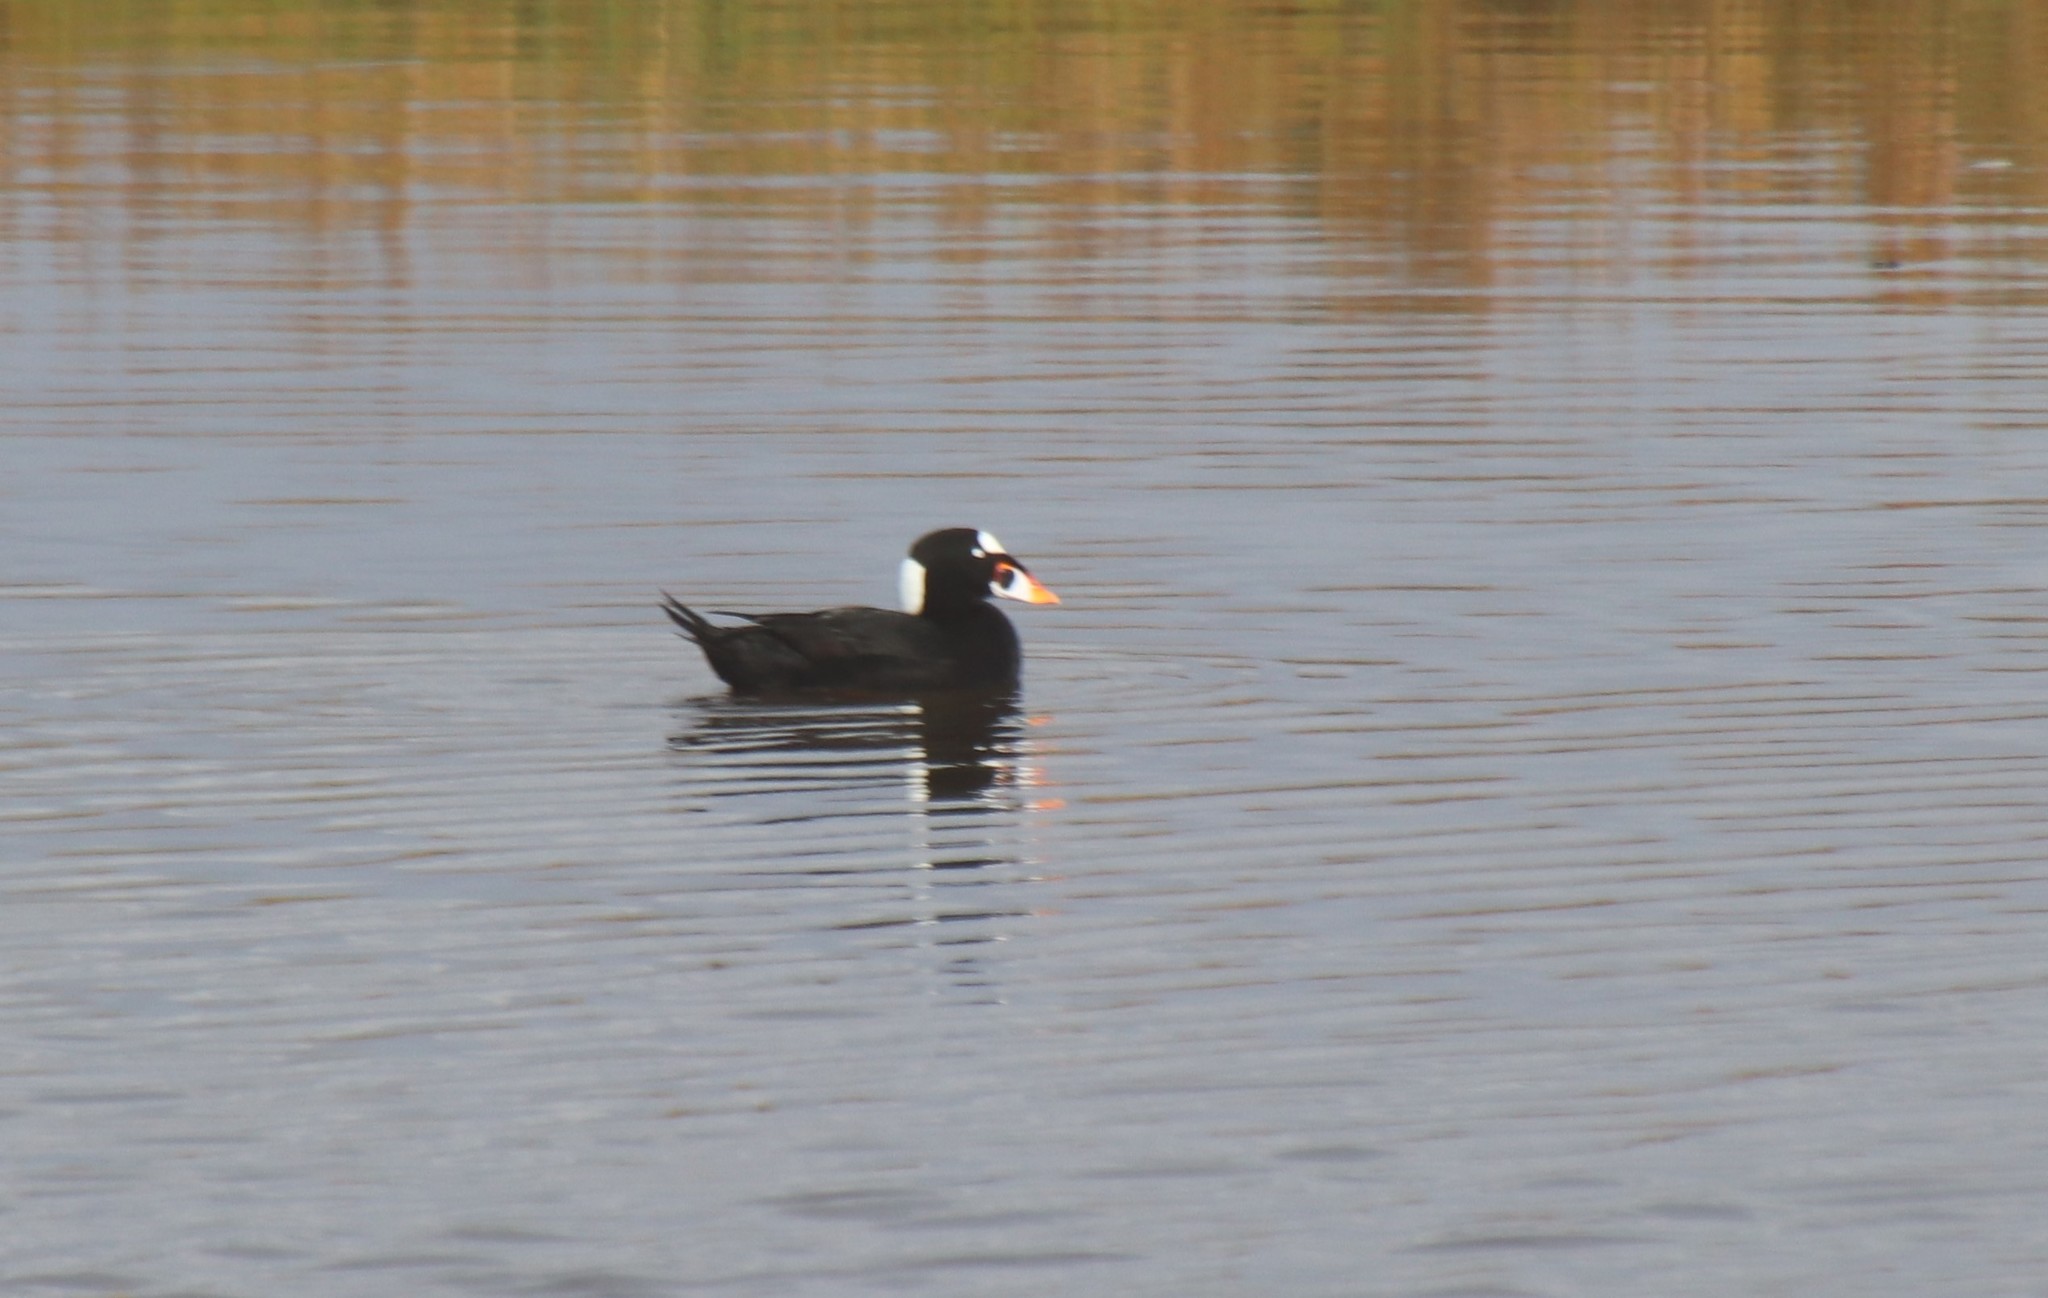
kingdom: Animalia
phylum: Chordata
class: Aves
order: Anseriformes
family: Anatidae
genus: Melanitta
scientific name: Melanitta perspicillata
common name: Surf scoter
